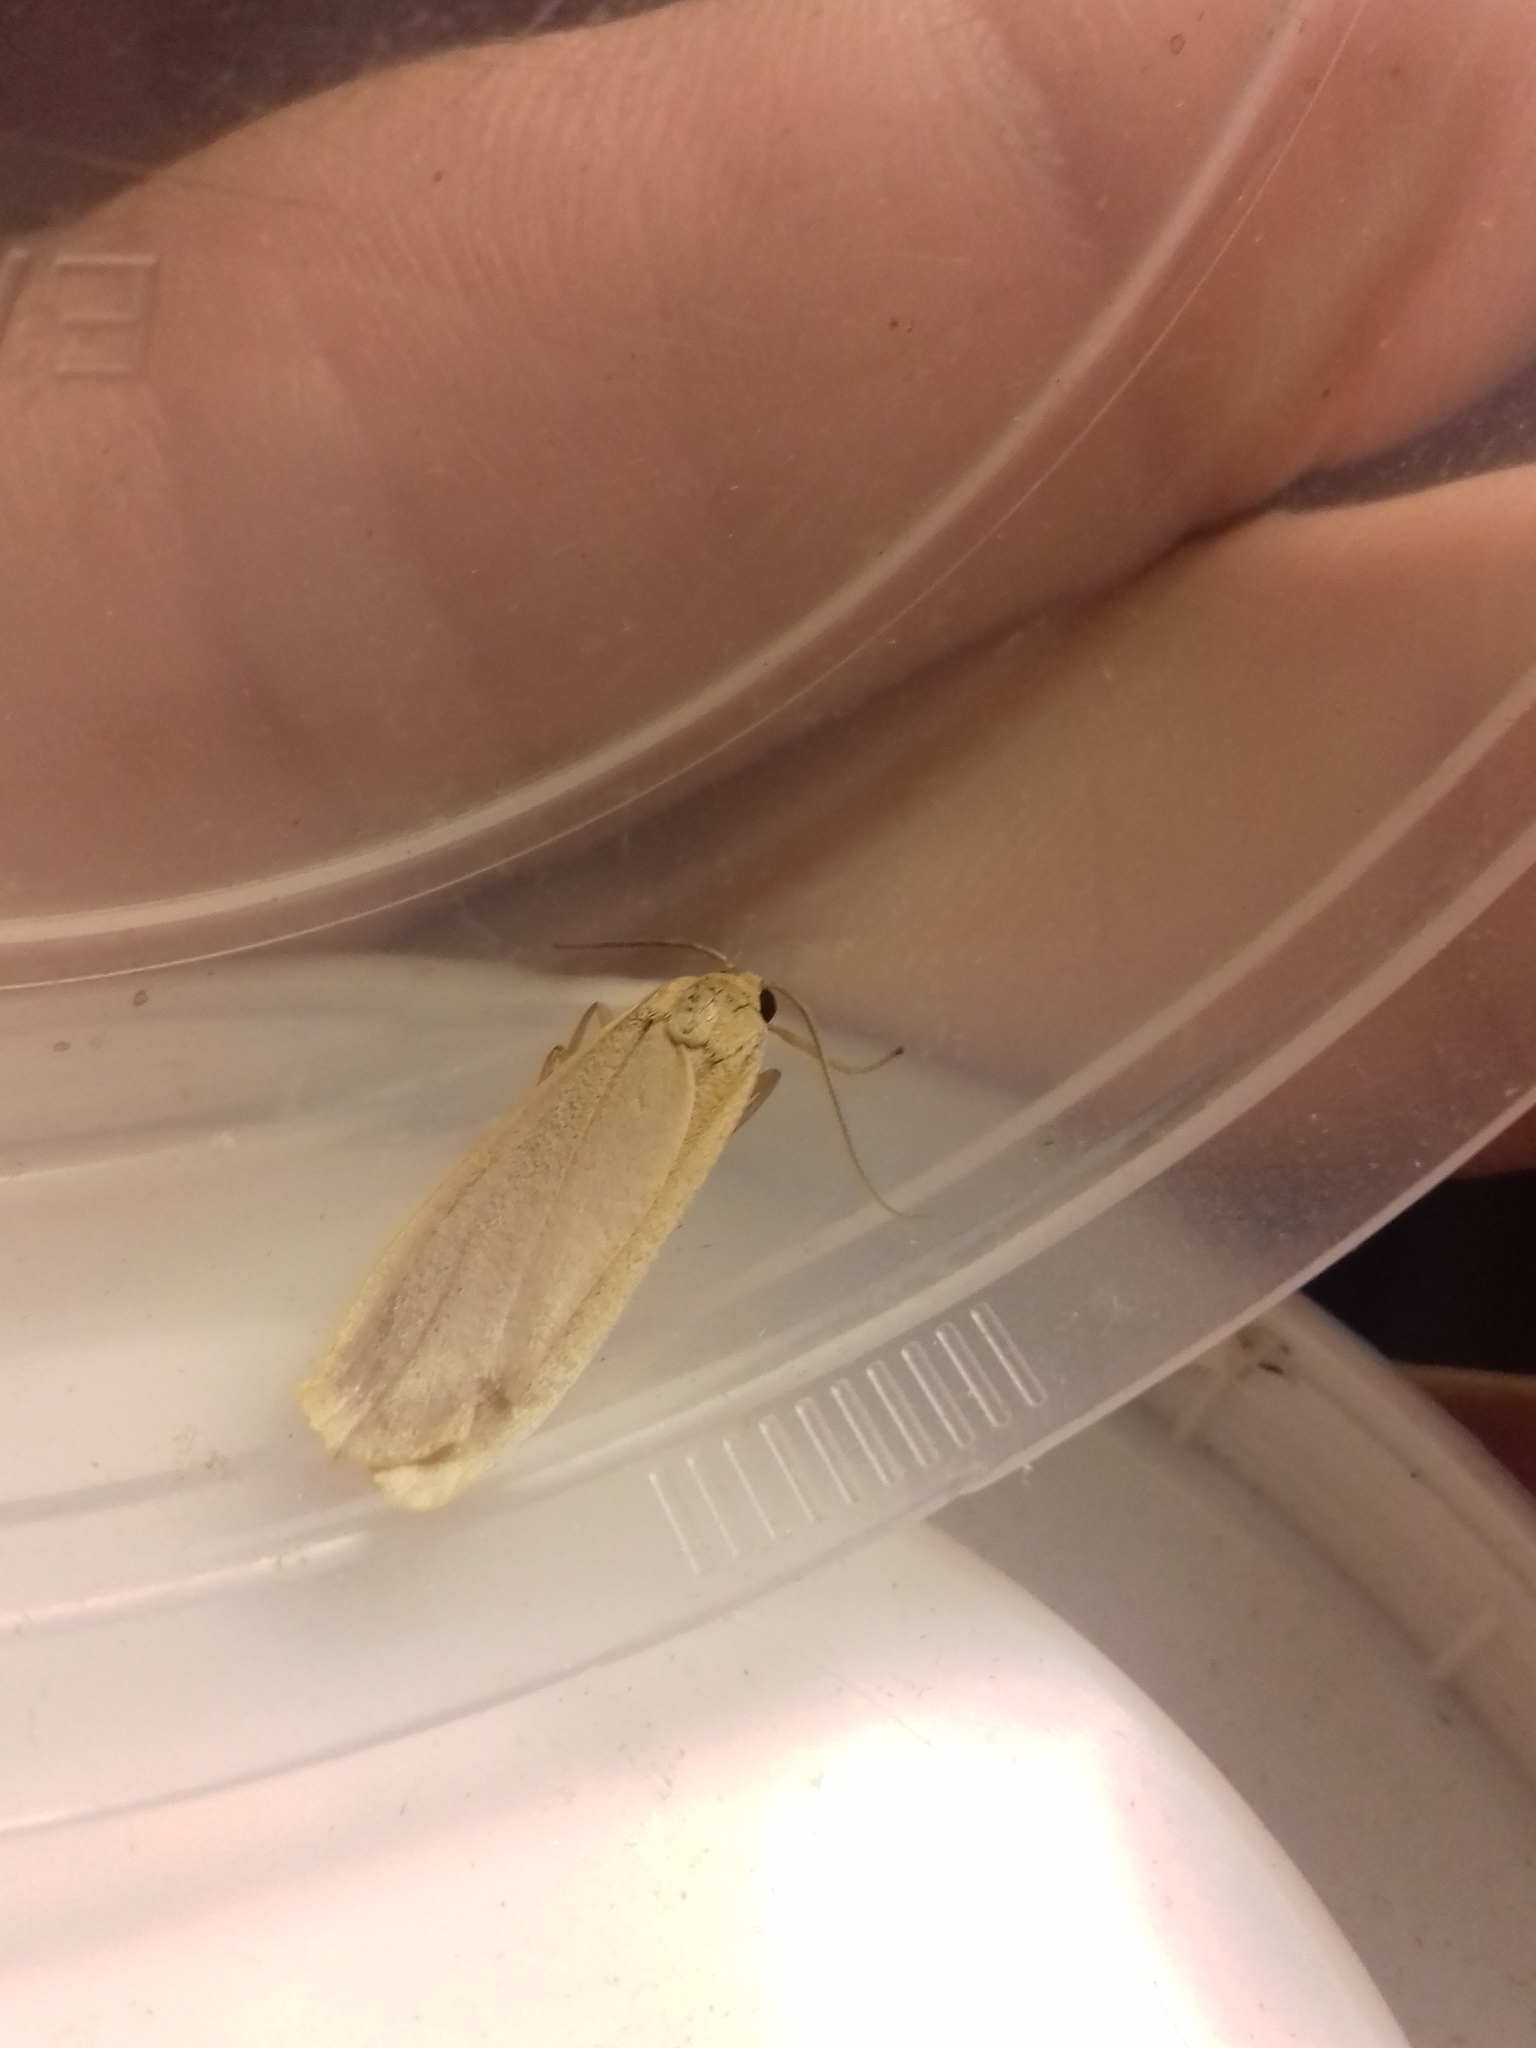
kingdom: Animalia
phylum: Arthropoda
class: Insecta
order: Lepidoptera
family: Erebidae
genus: Katha
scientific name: Katha depressa
